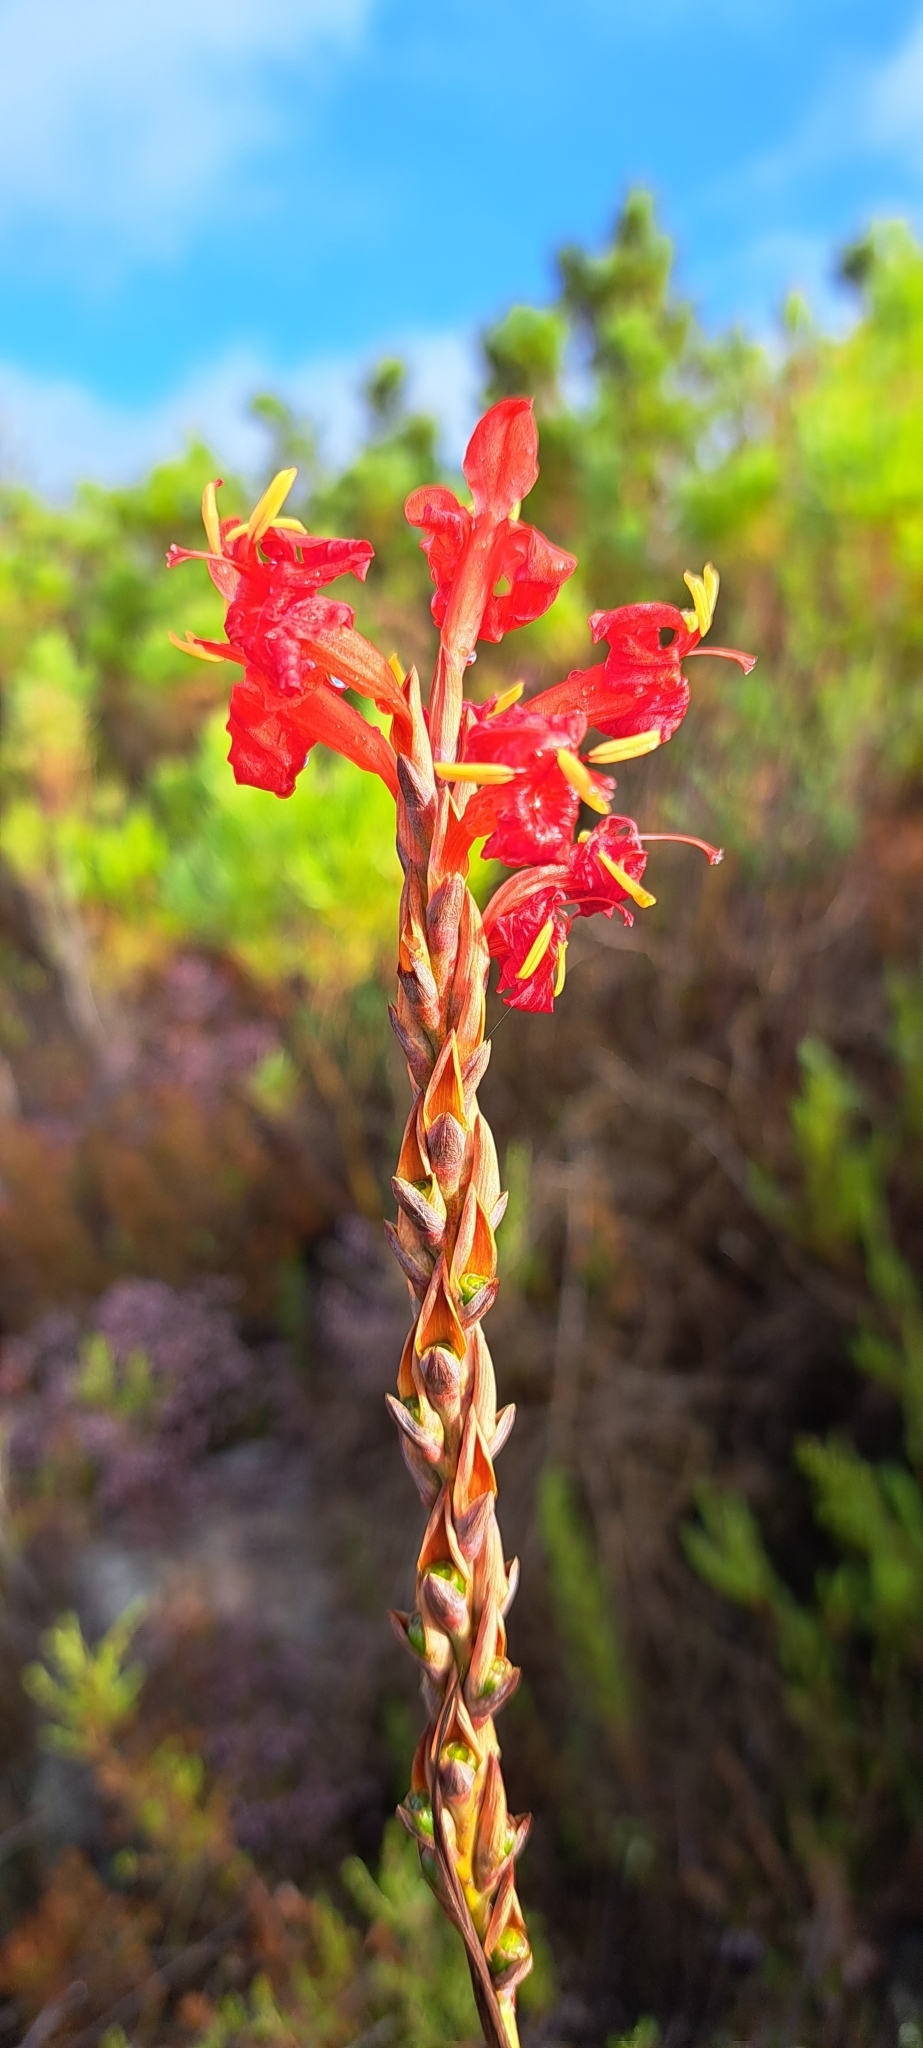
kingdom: Plantae
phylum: Tracheophyta
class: Liliopsida
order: Asparagales
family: Iridaceae
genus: Tritoniopsis
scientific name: Tritoniopsis triticea
